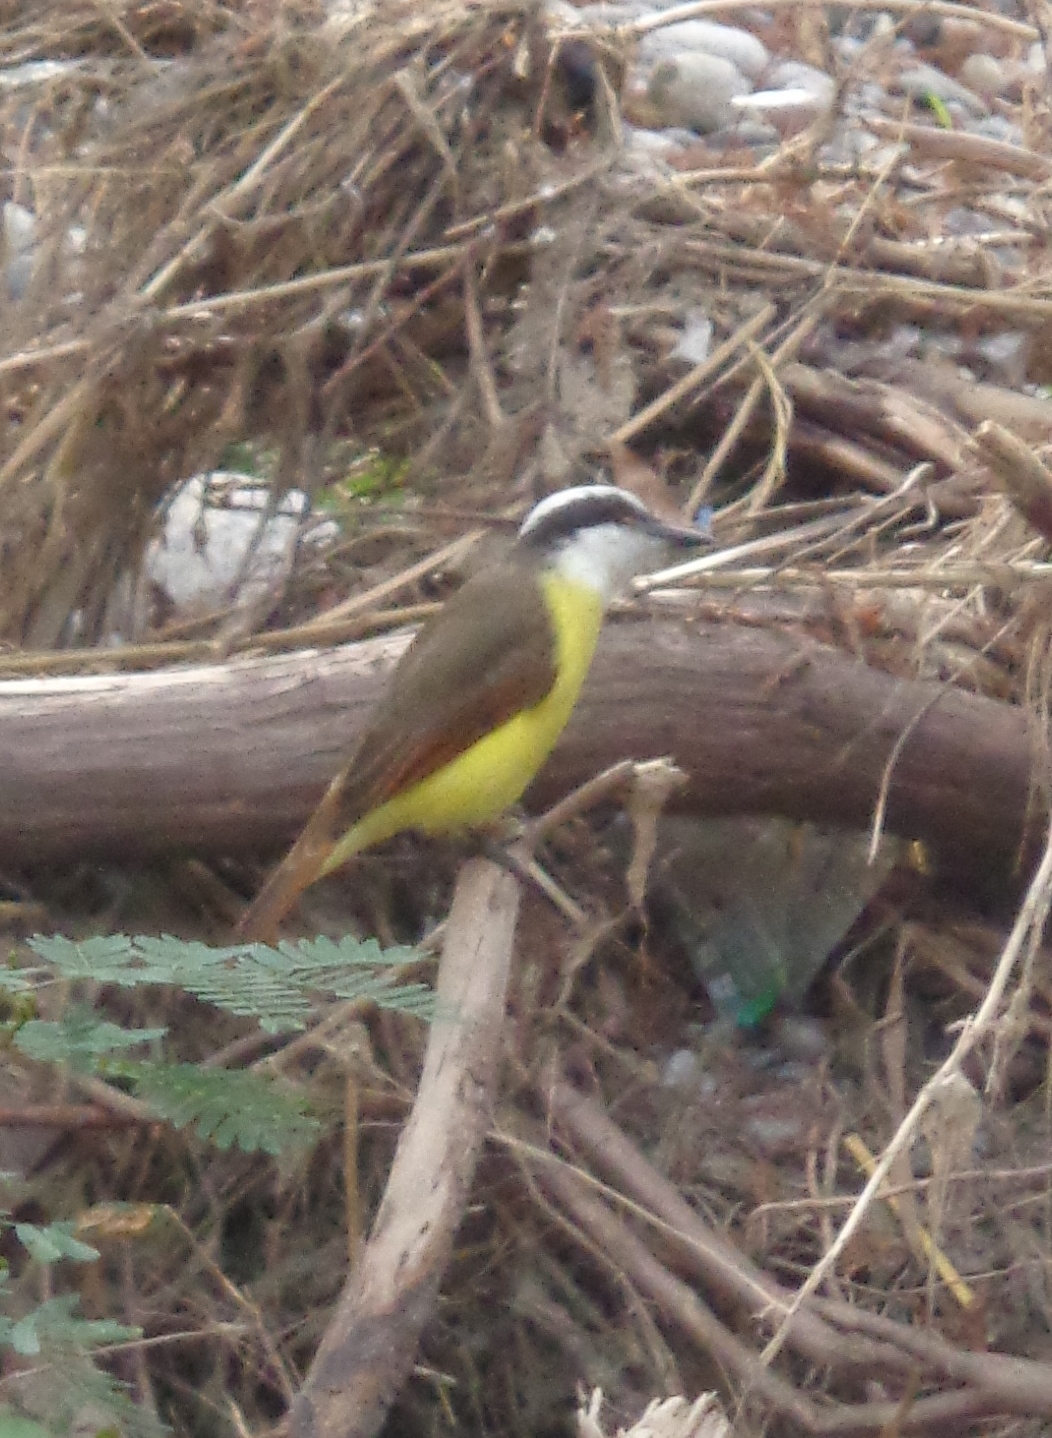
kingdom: Animalia
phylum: Chordata
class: Aves
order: Passeriformes
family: Tyrannidae
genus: Pitangus
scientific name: Pitangus sulphuratus
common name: Great kiskadee
